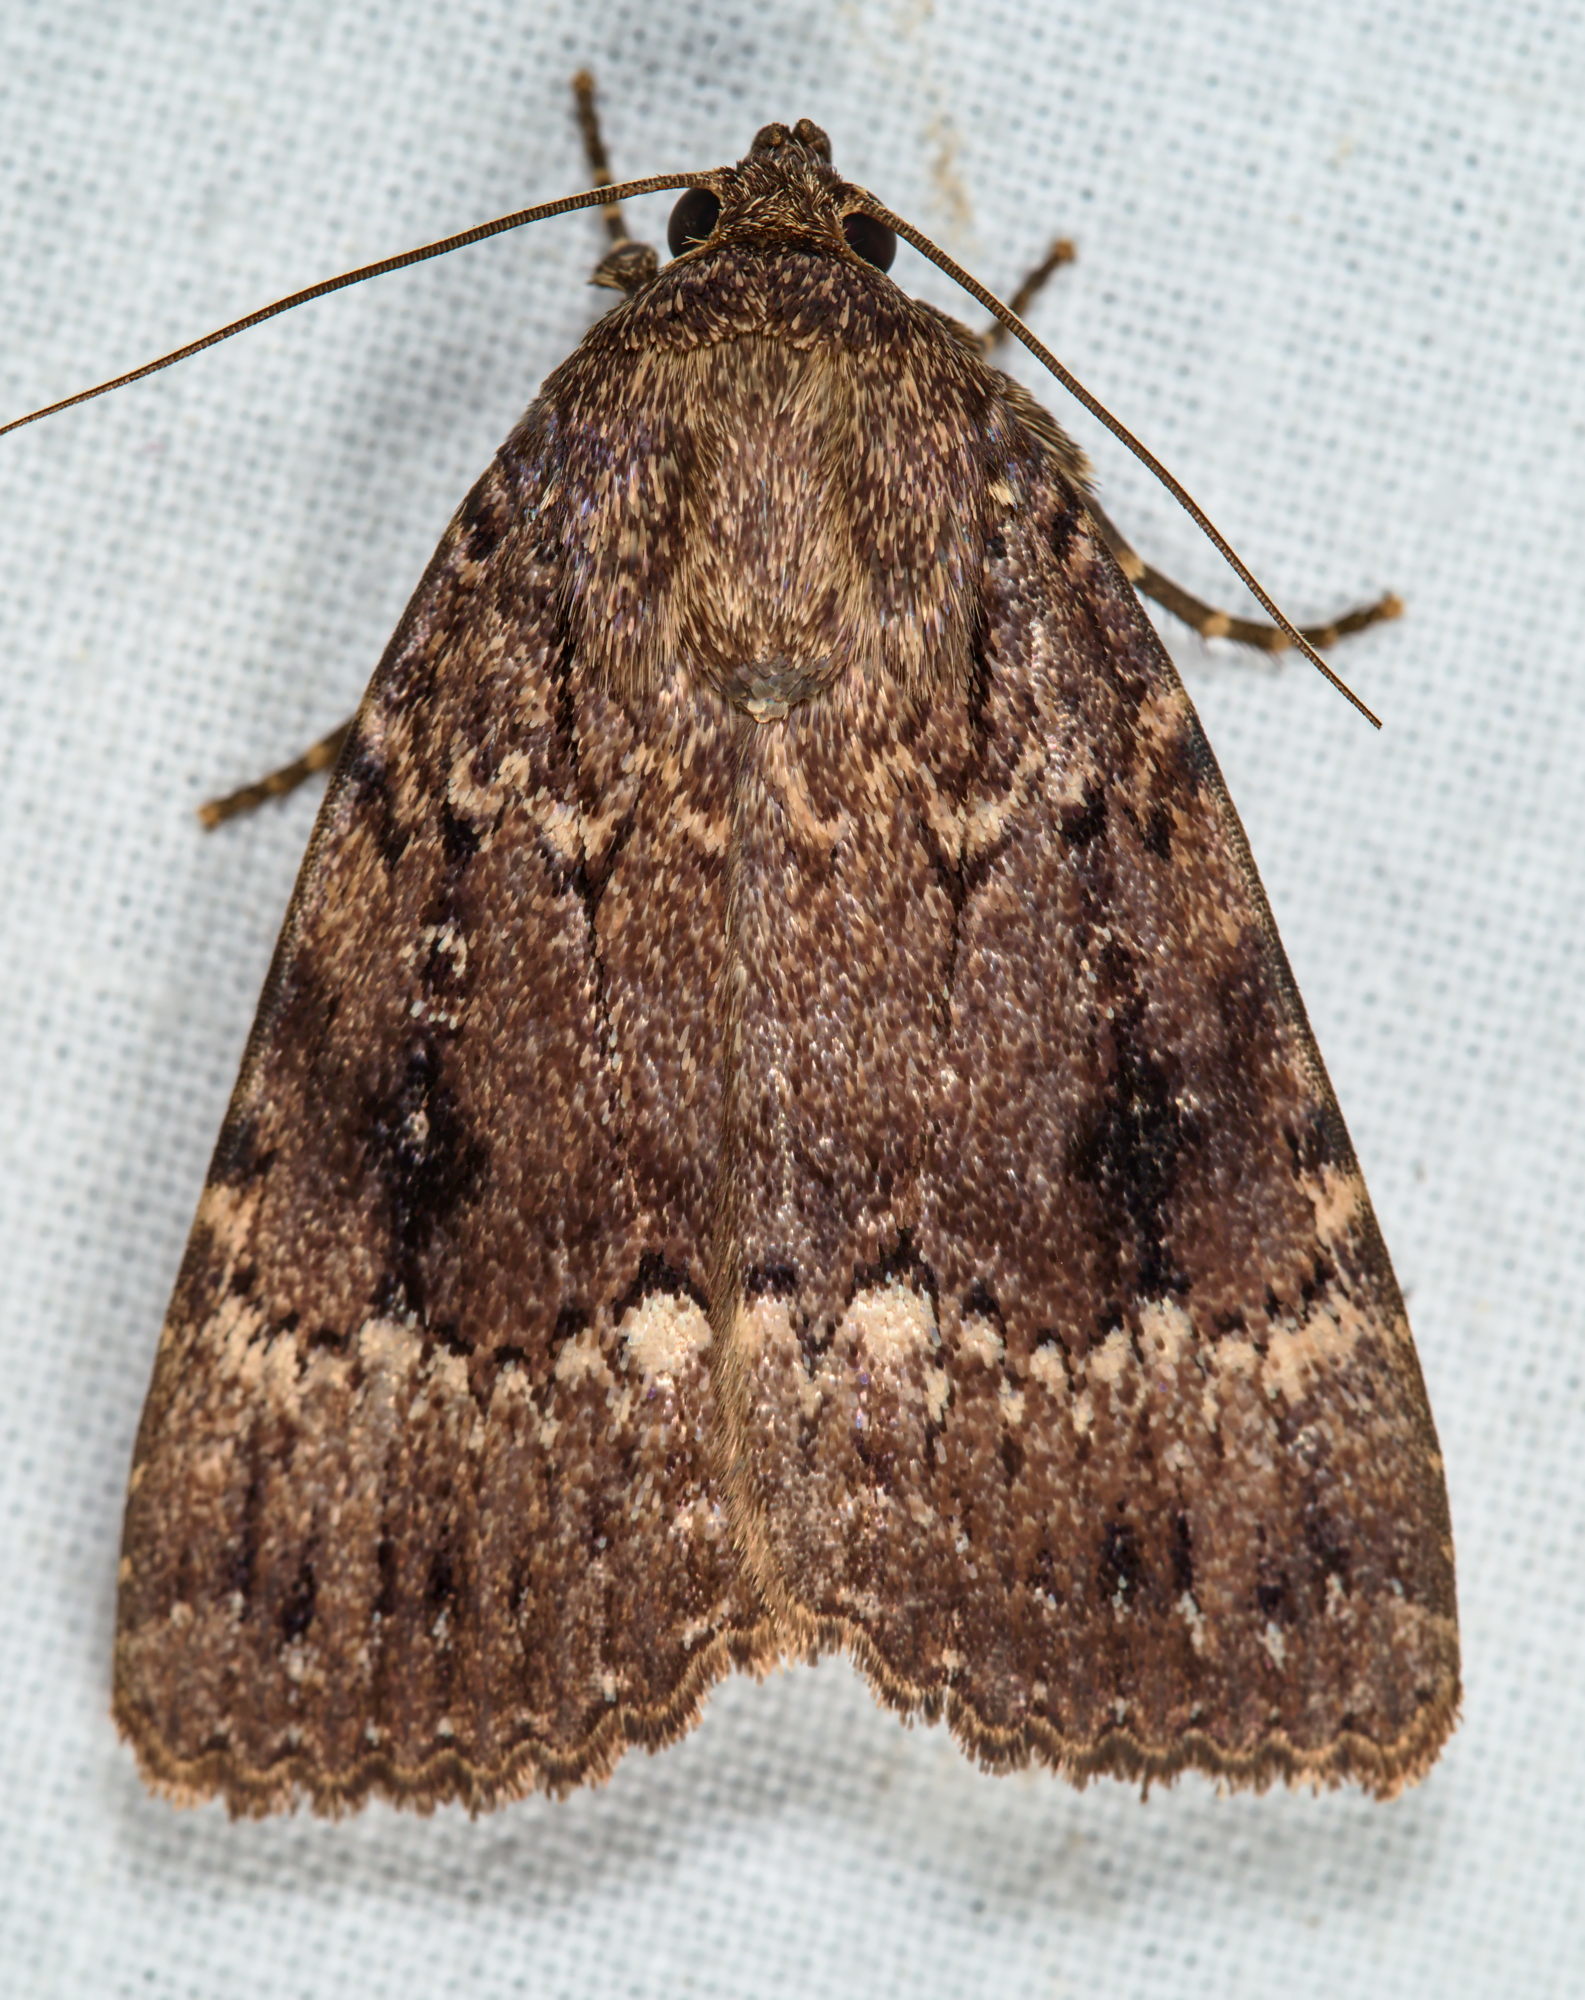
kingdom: Animalia
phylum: Arthropoda
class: Insecta
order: Lepidoptera
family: Noctuidae
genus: Amphipyra
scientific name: Amphipyra pyramidea
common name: Copper underwing
